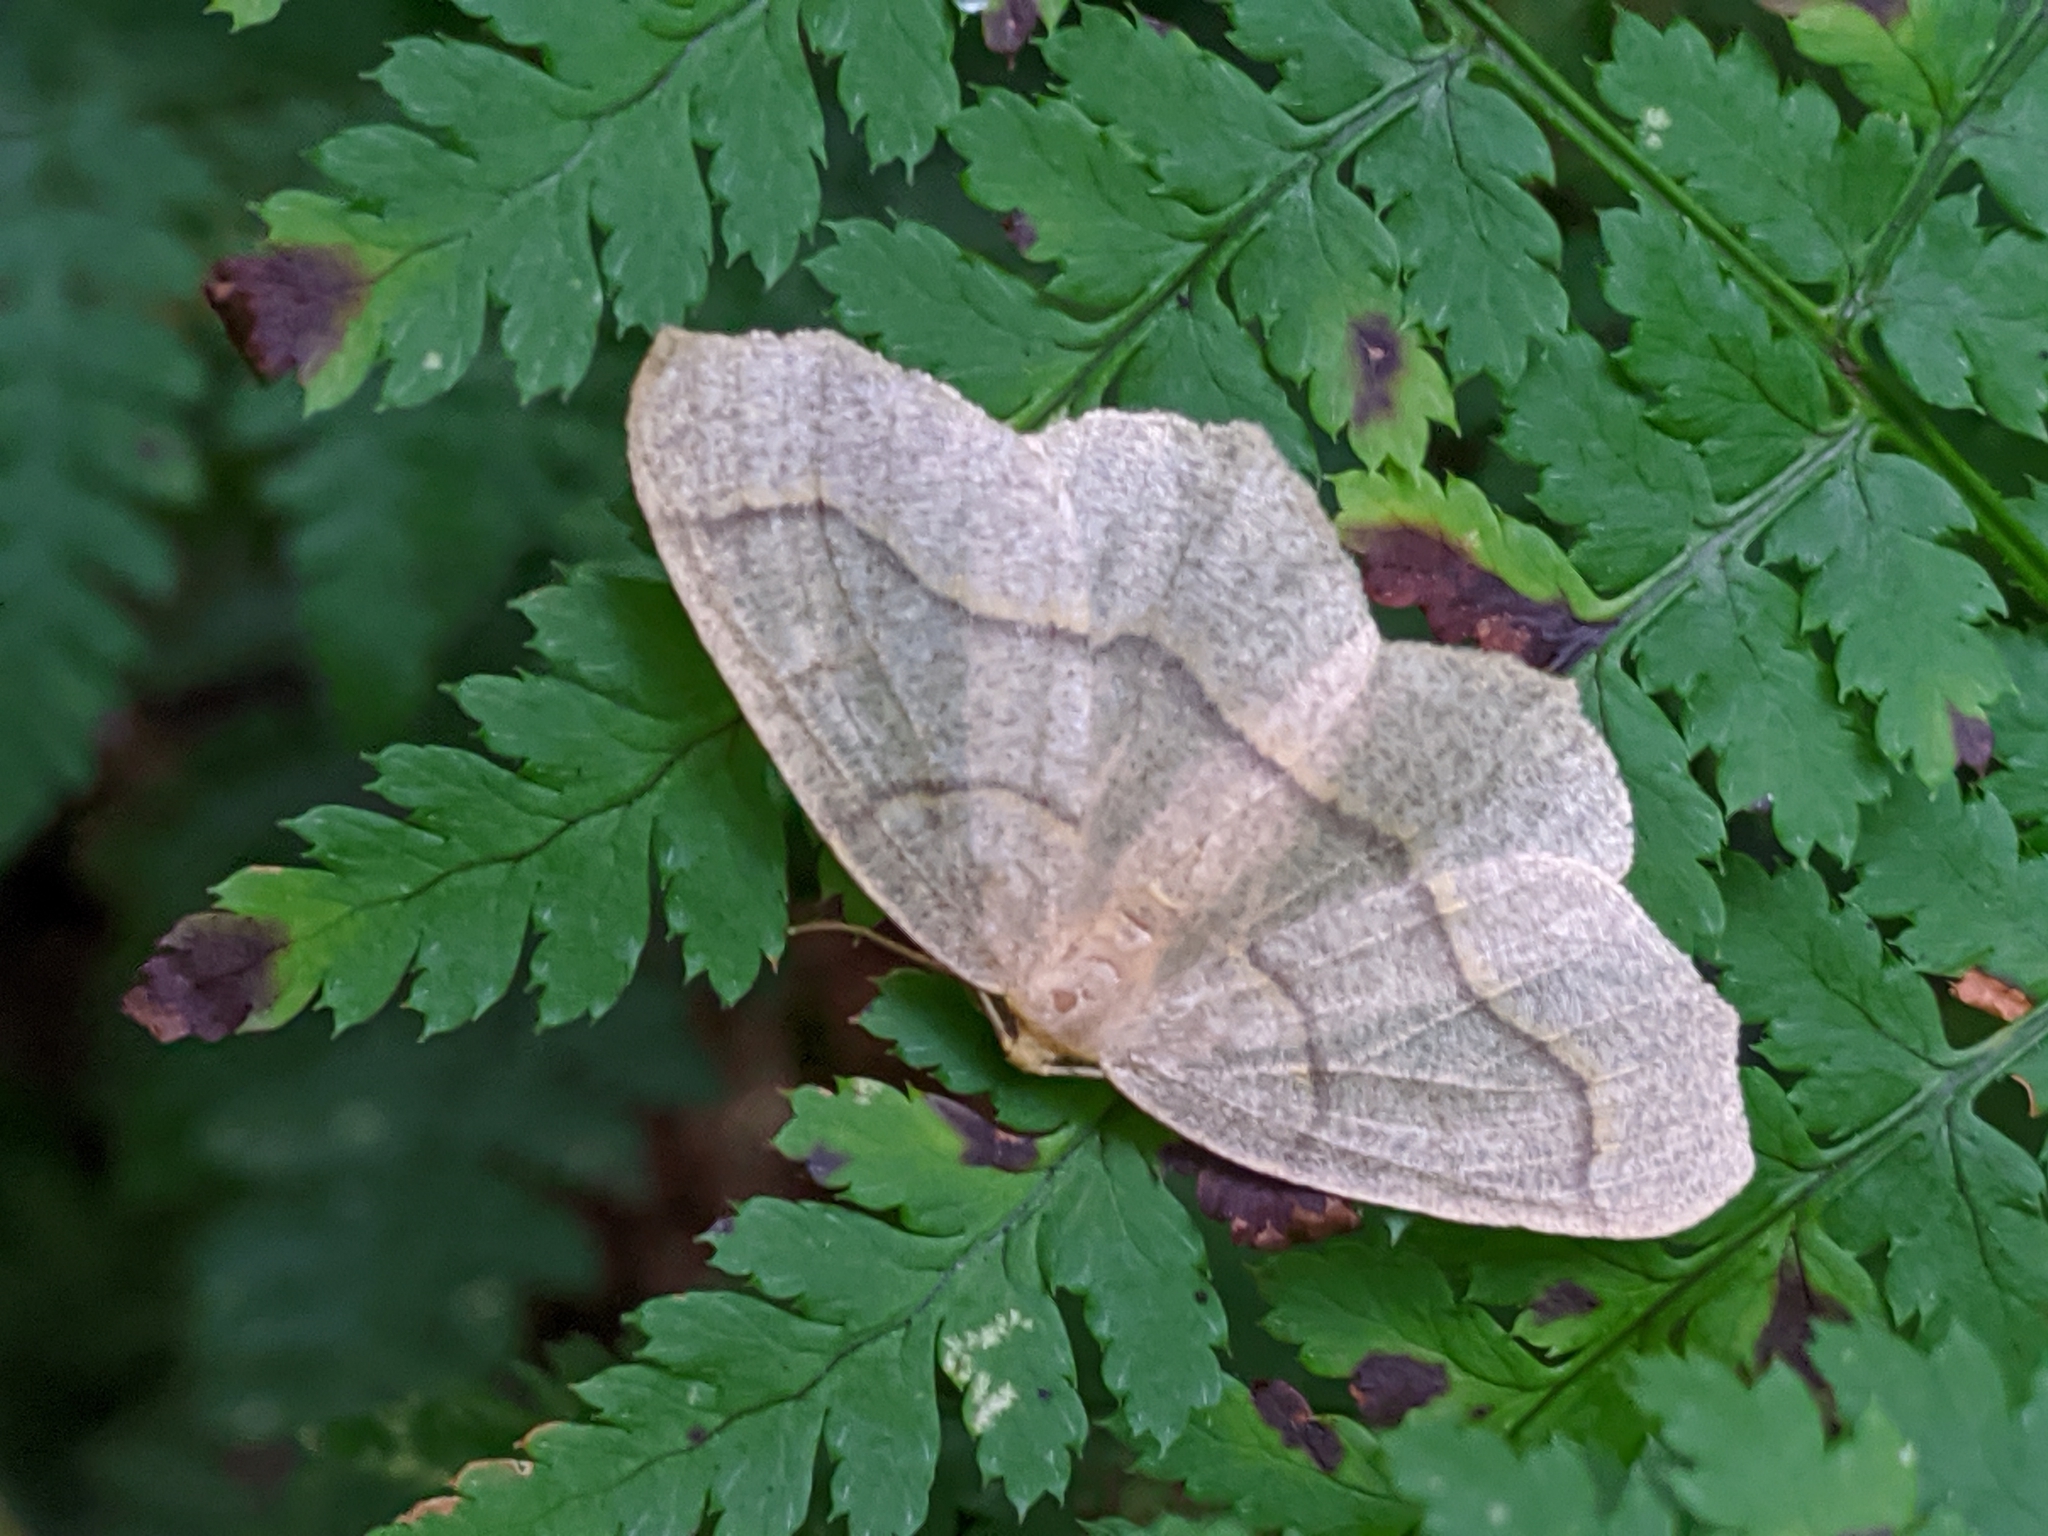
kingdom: Animalia
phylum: Arthropoda
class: Insecta
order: Lepidoptera
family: Geometridae
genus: Lambdina
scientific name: Lambdina fiscellaria
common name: Hemlock looper
